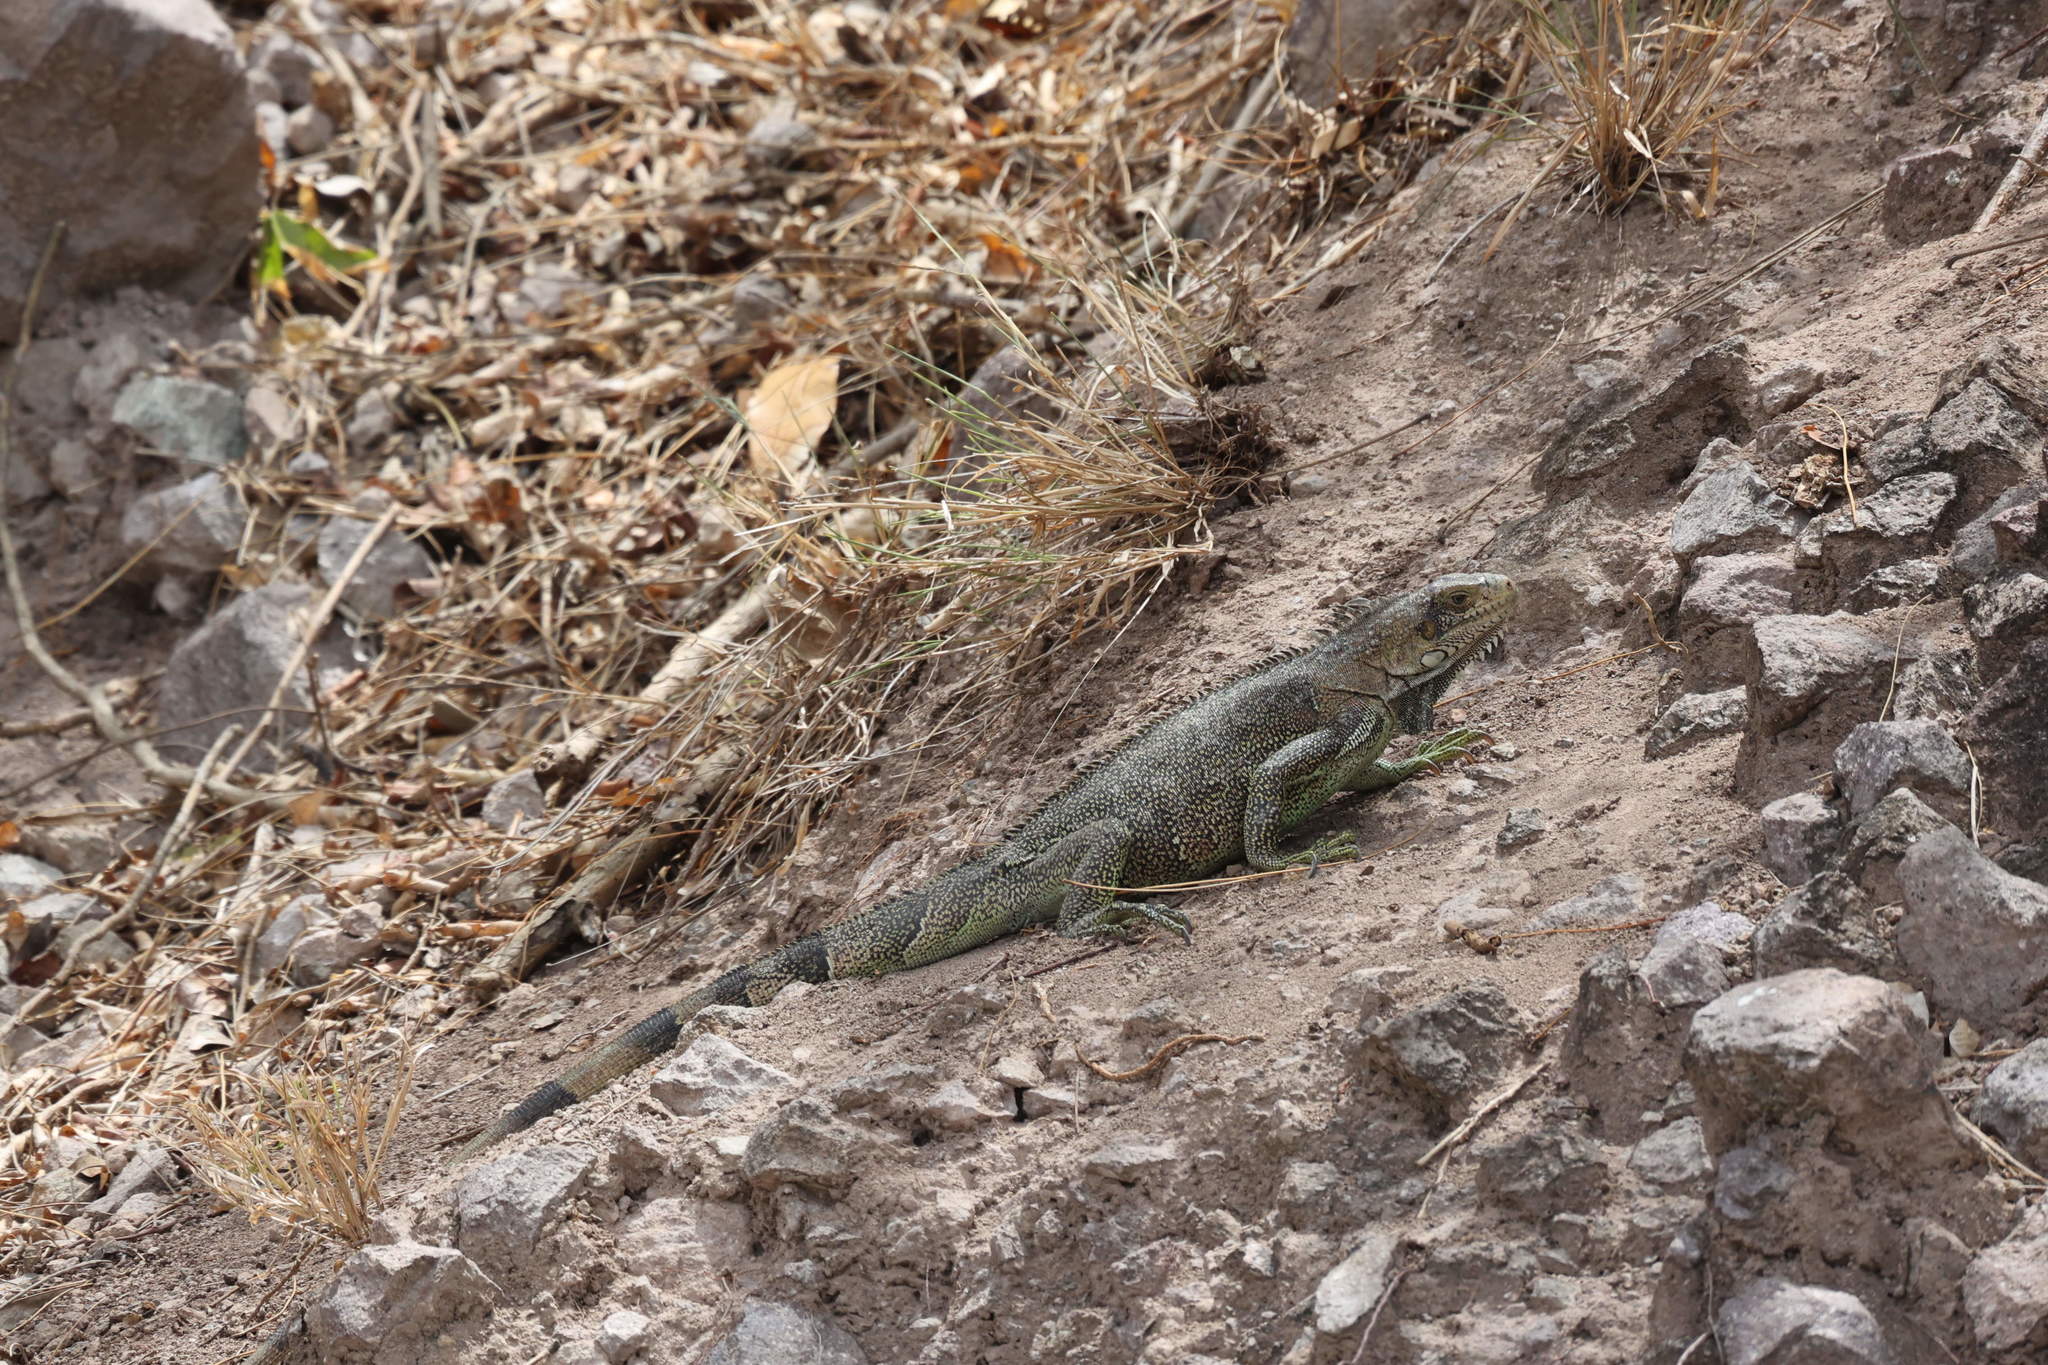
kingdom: Animalia
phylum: Chordata
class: Squamata
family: Iguanidae
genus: Iguana
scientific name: Iguana iguana
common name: Green iguana
